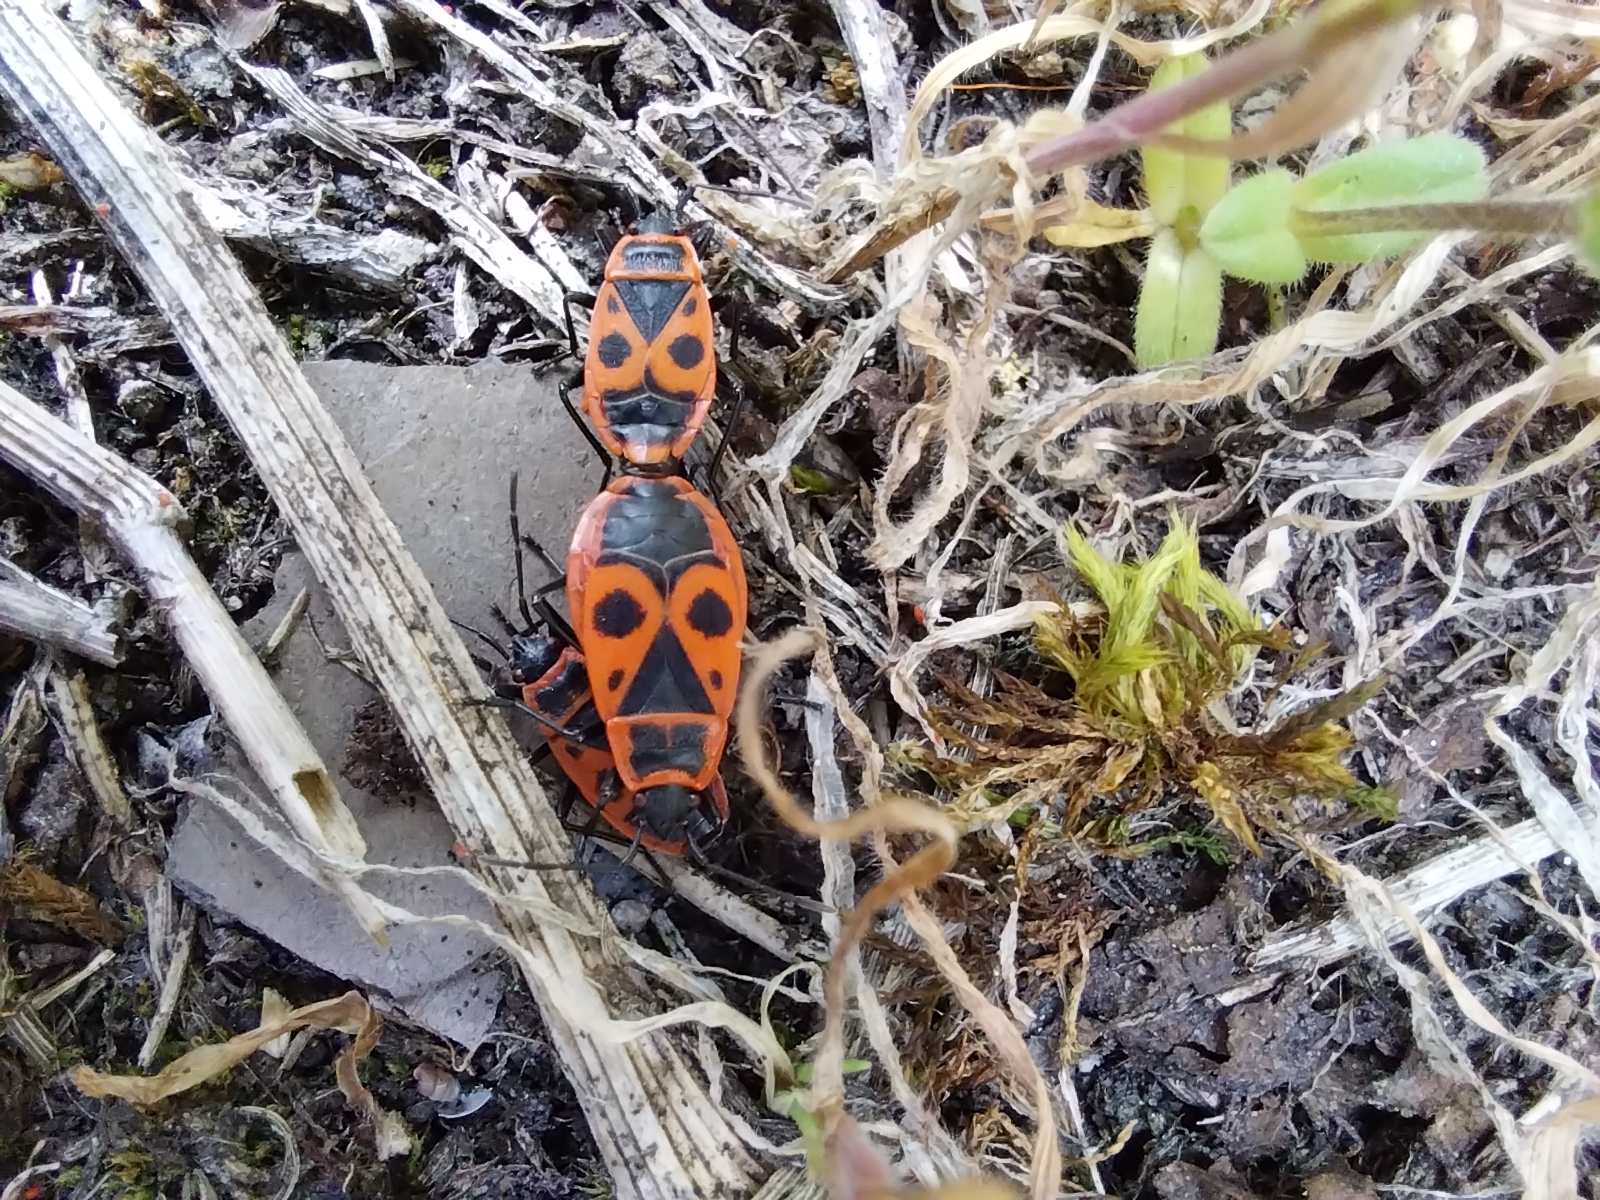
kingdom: Animalia
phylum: Arthropoda
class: Insecta
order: Hemiptera
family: Pyrrhocoridae
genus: Pyrrhocoris
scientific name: Pyrrhocoris apterus
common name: Firebug
